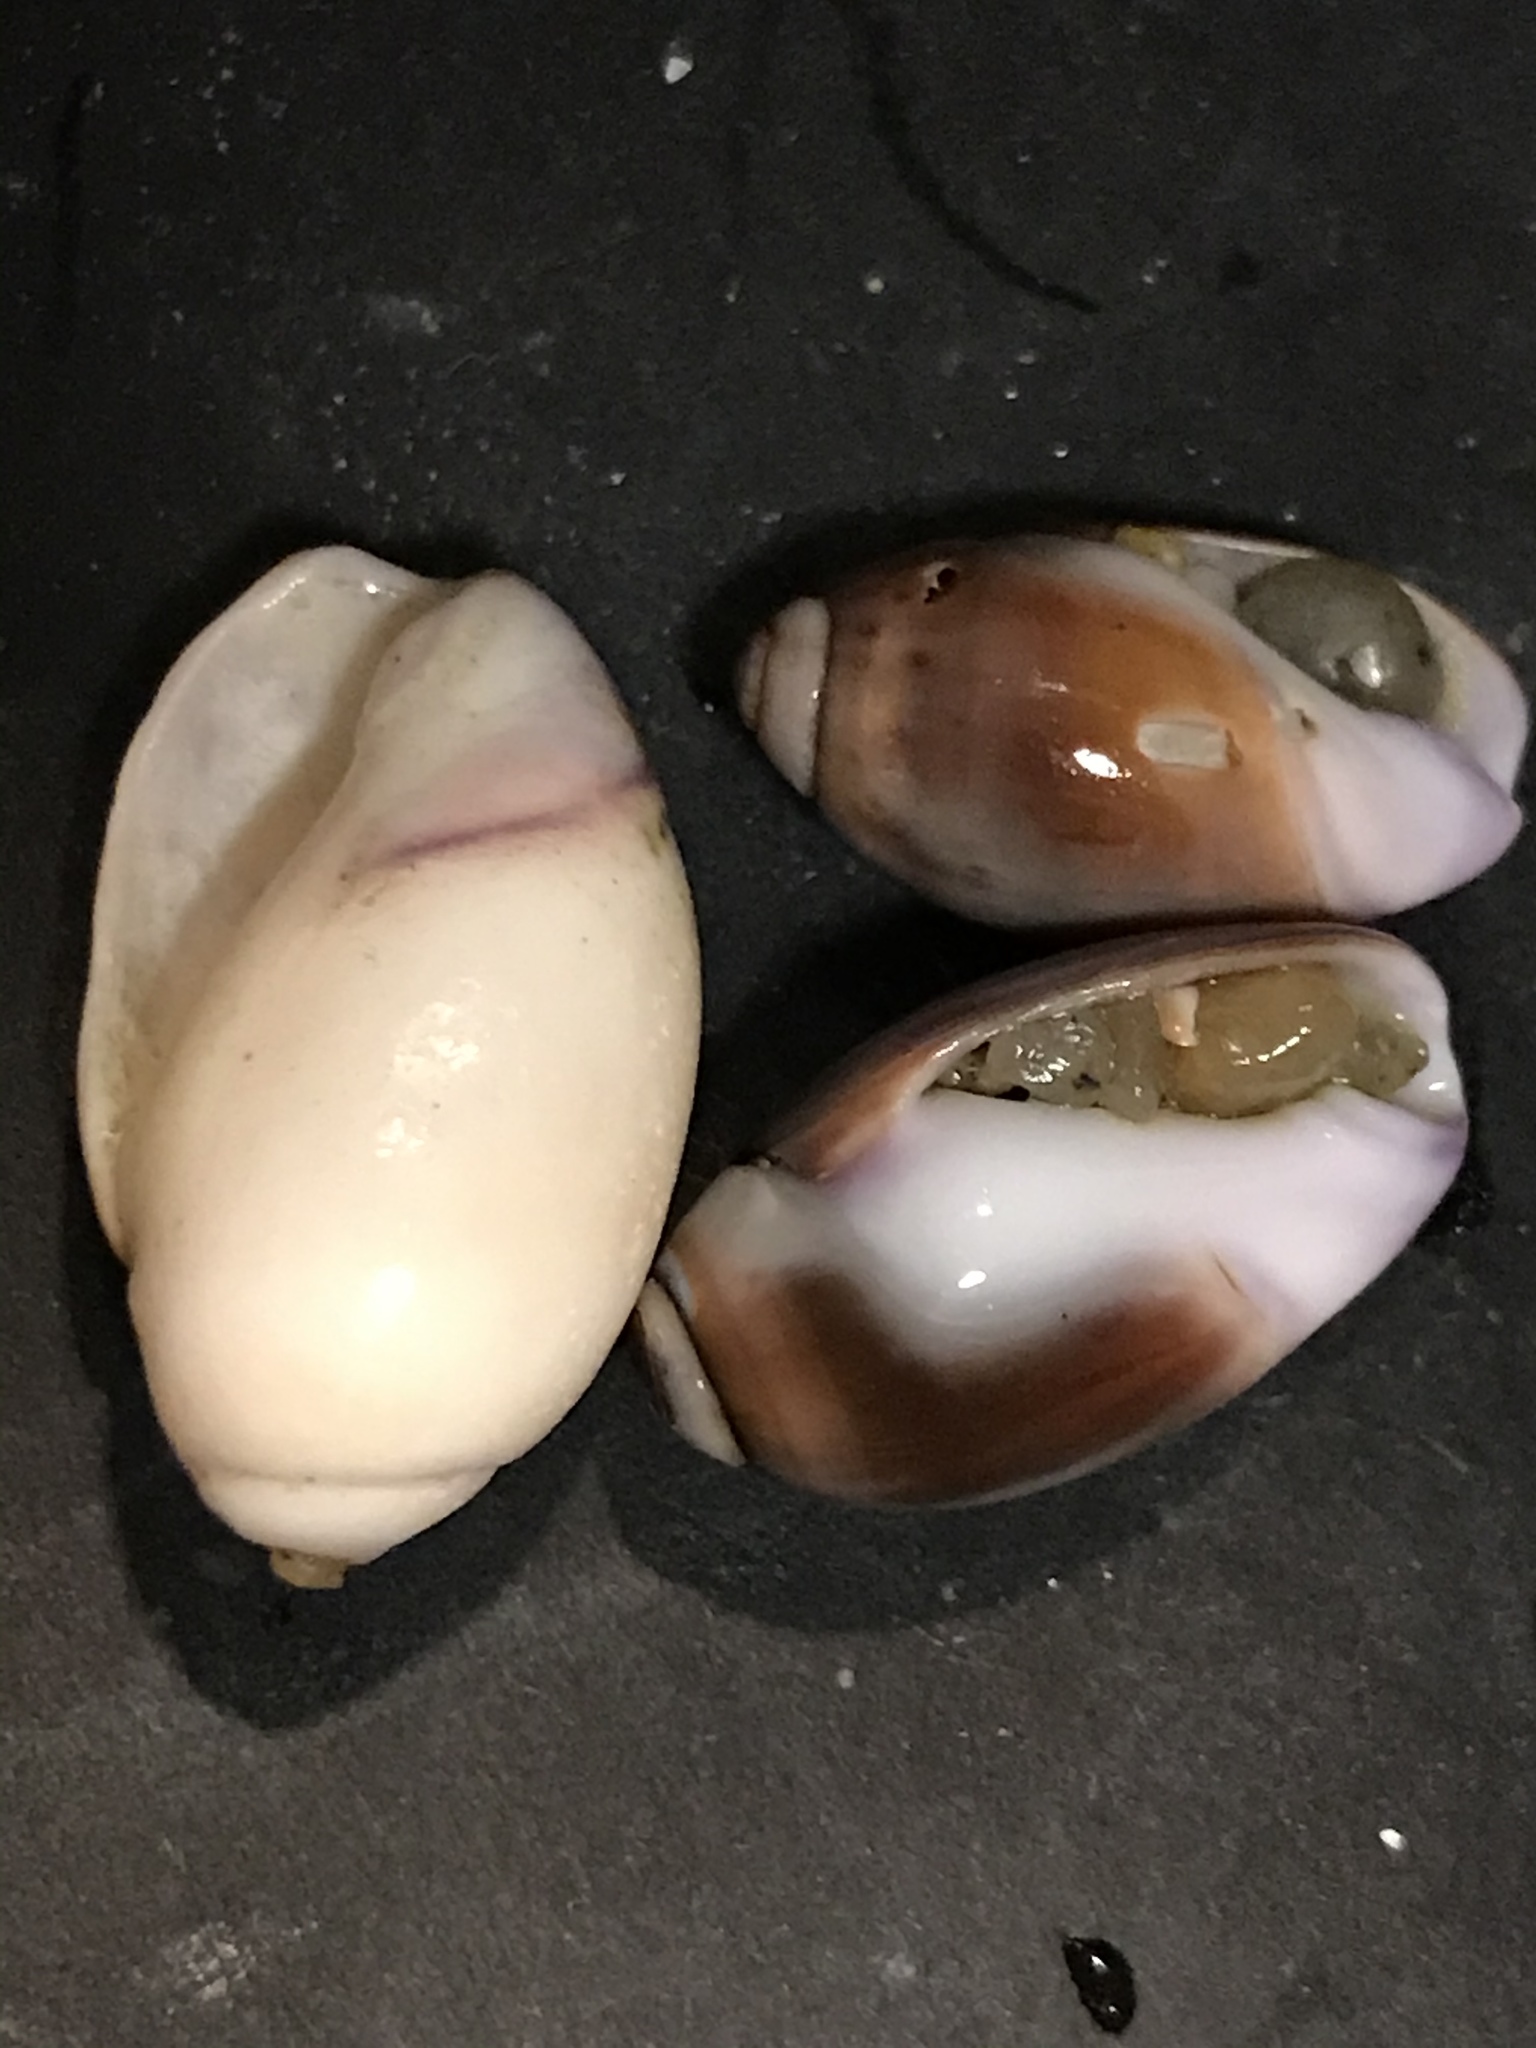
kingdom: Animalia
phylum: Mollusca
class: Gastropoda
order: Neogastropoda
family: Olividae
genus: Callianax
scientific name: Callianax biplicata
